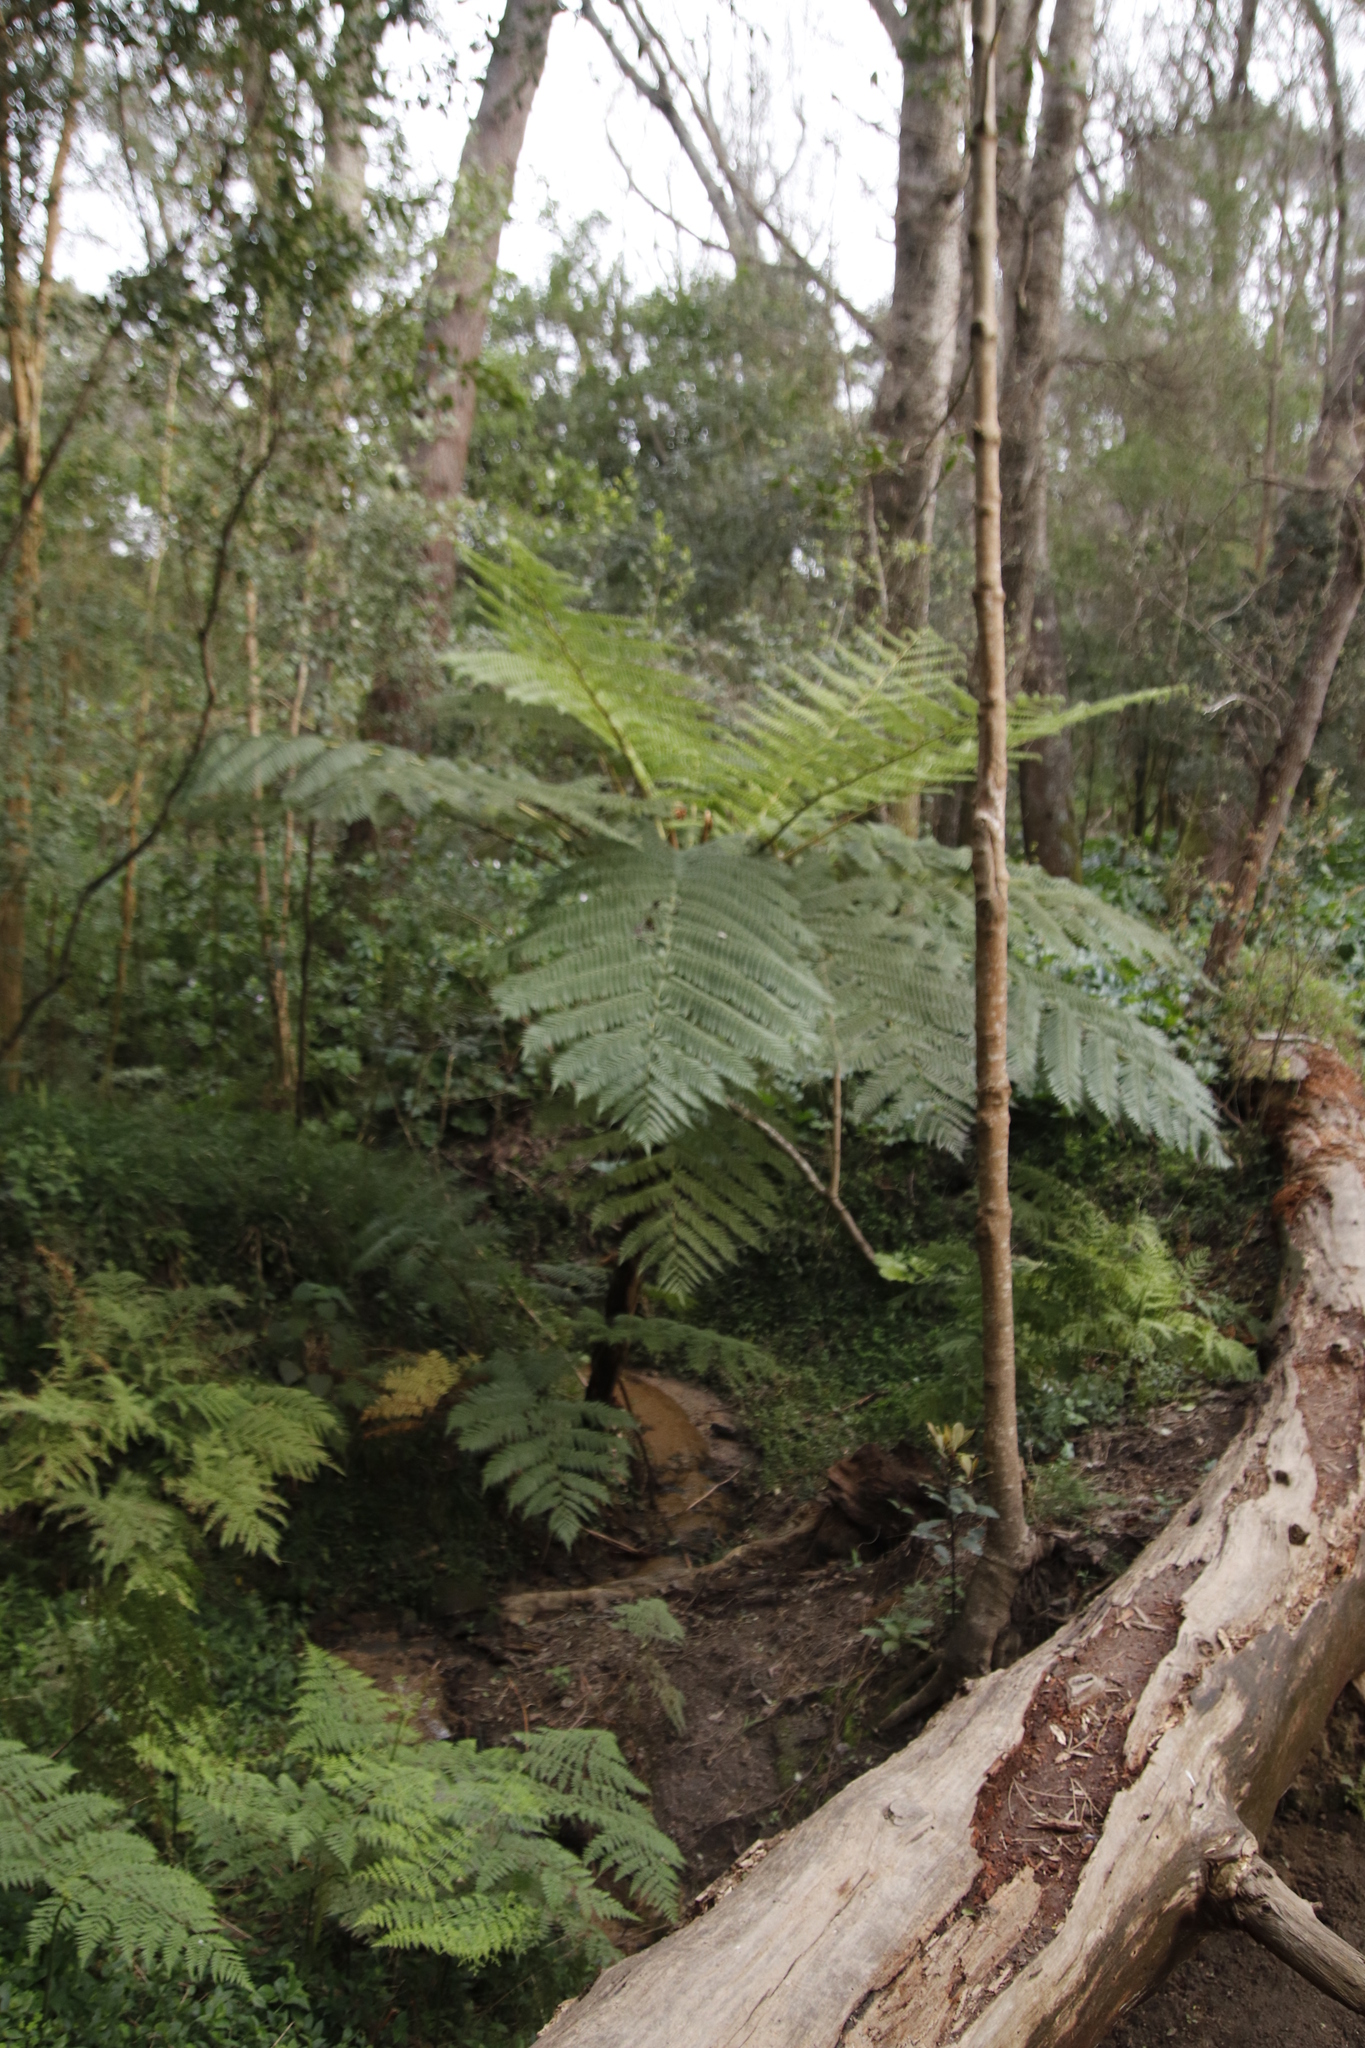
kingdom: Plantae
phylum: Tracheophyta
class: Polypodiopsida
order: Cyatheales
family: Cyatheaceae
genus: Sphaeropteris
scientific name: Sphaeropteris cooperi
